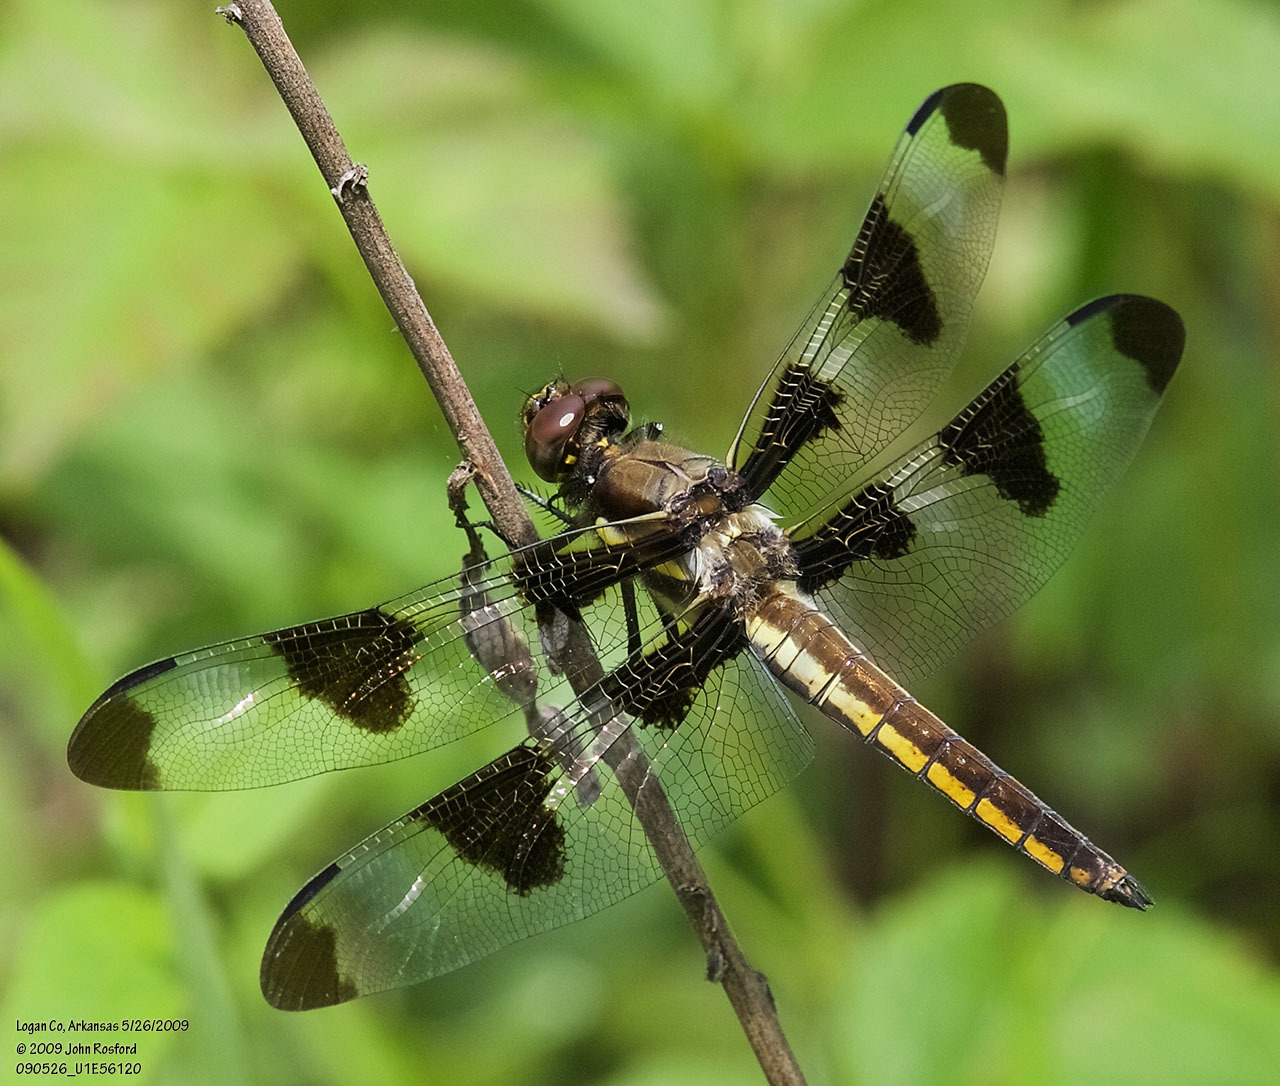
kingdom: Animalia
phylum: Arthropoda
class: Insecta
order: Odonata
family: Libellulidae
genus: Libellula
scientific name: Libellula pulchella
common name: Twelve-spotted skimmer
